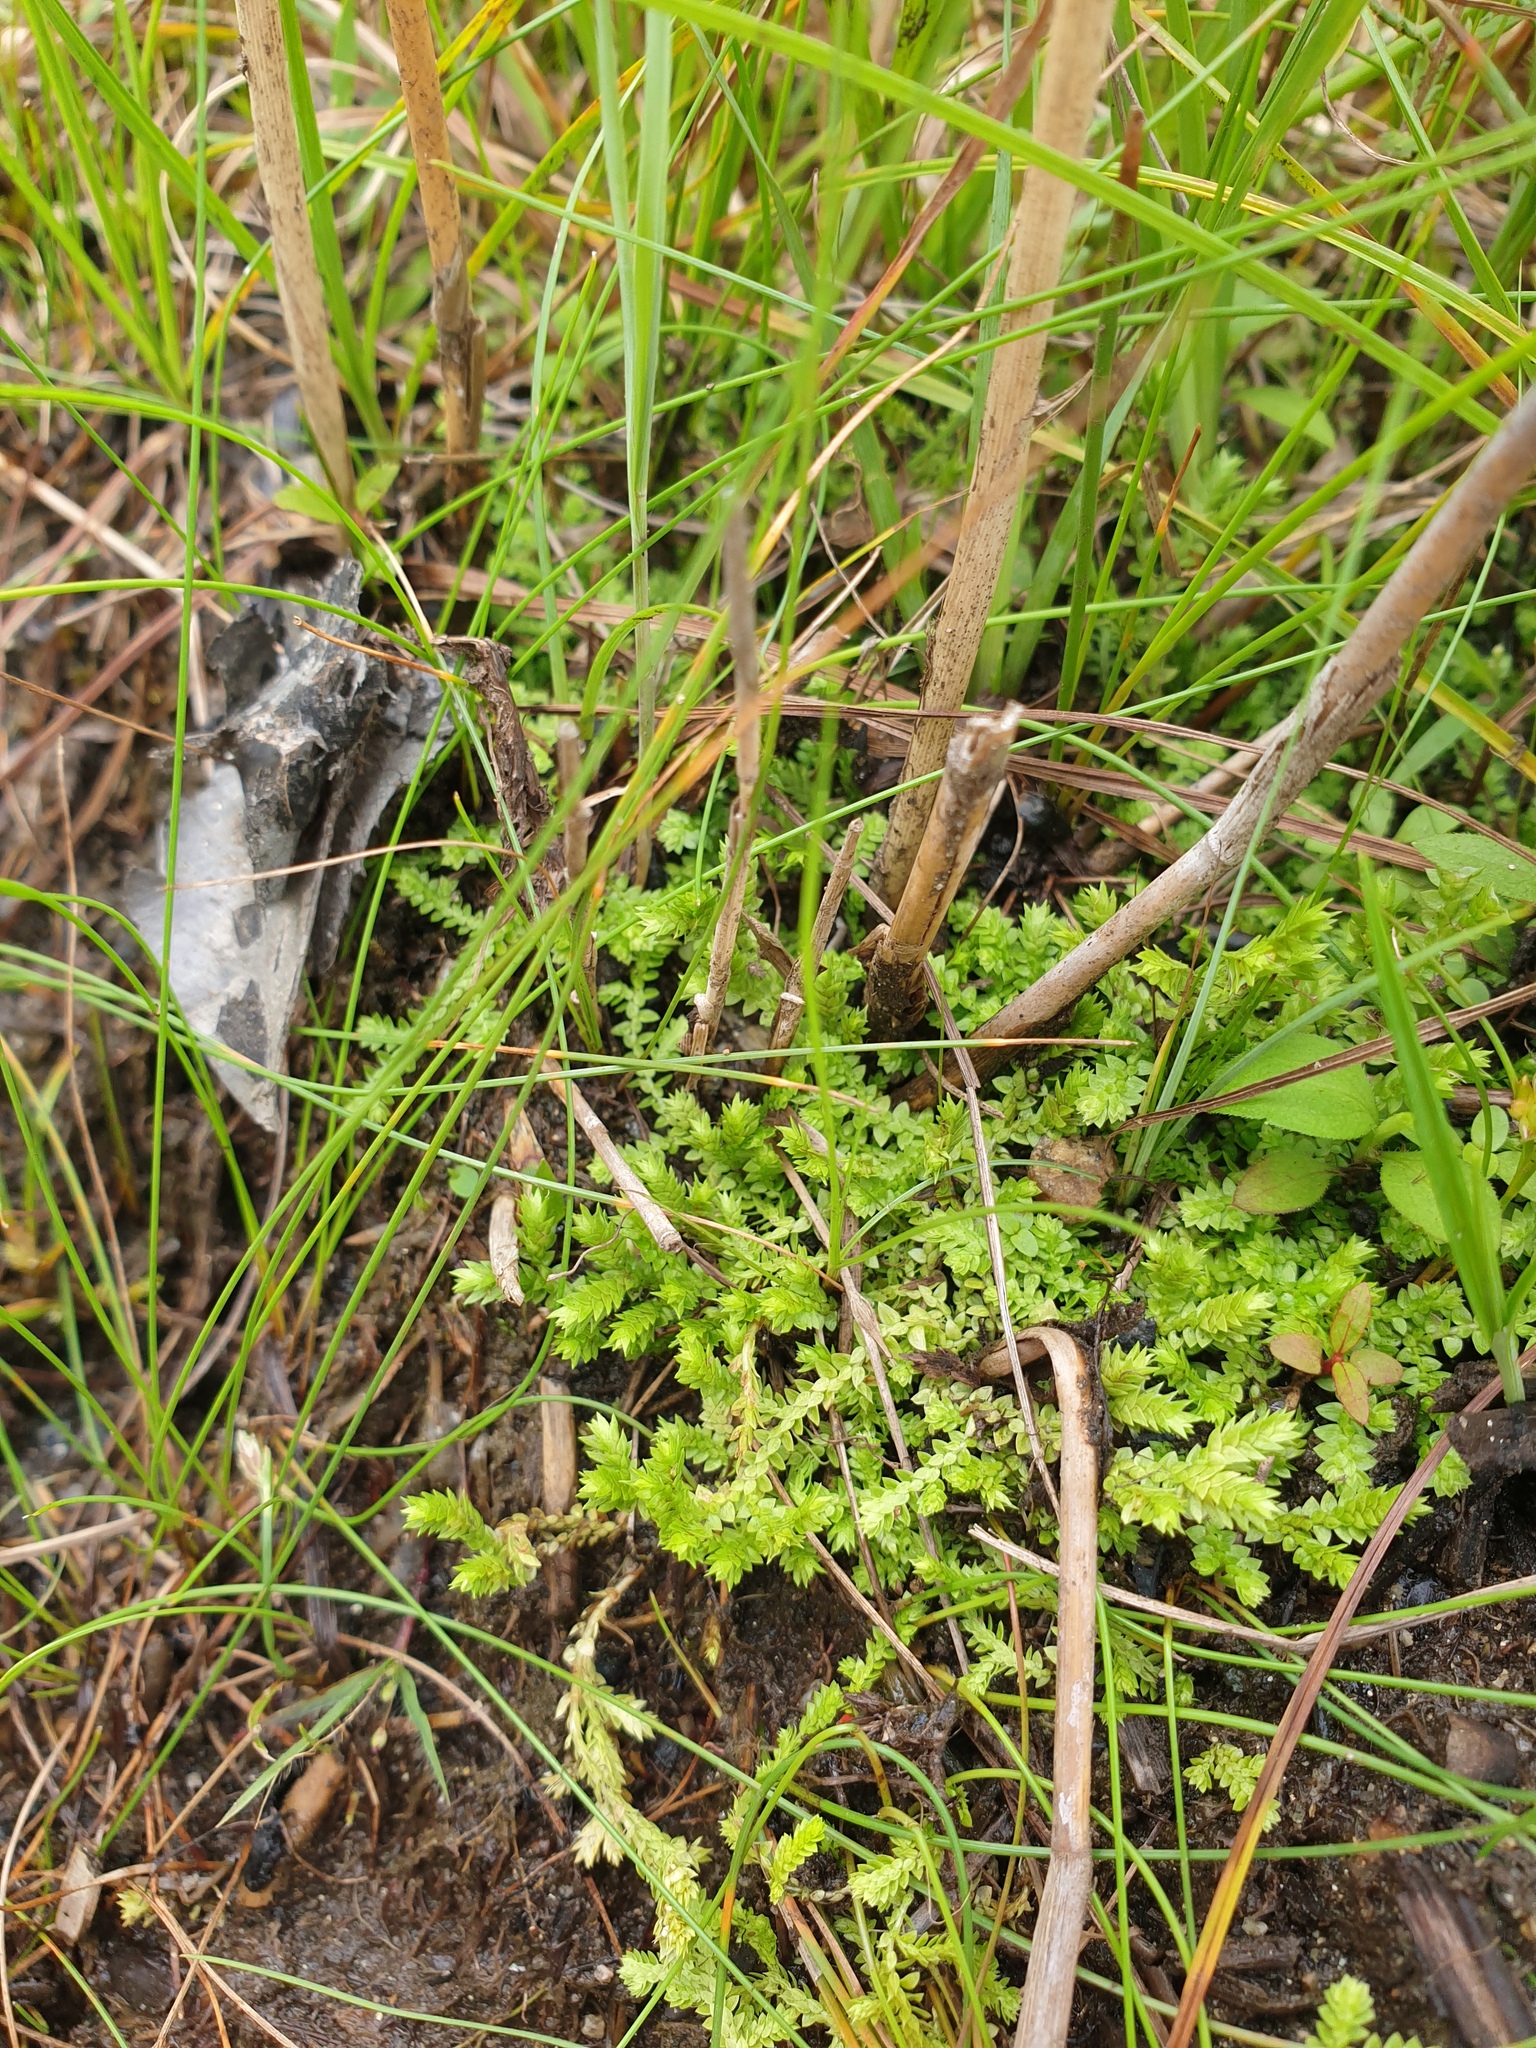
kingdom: Plantae
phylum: Tracheophyta
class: Lycopodiopsida
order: Selaginellales
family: Selaginellaceae
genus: Selaginella
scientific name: Selaginella eclipes
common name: Buck's meadow spikemoss
